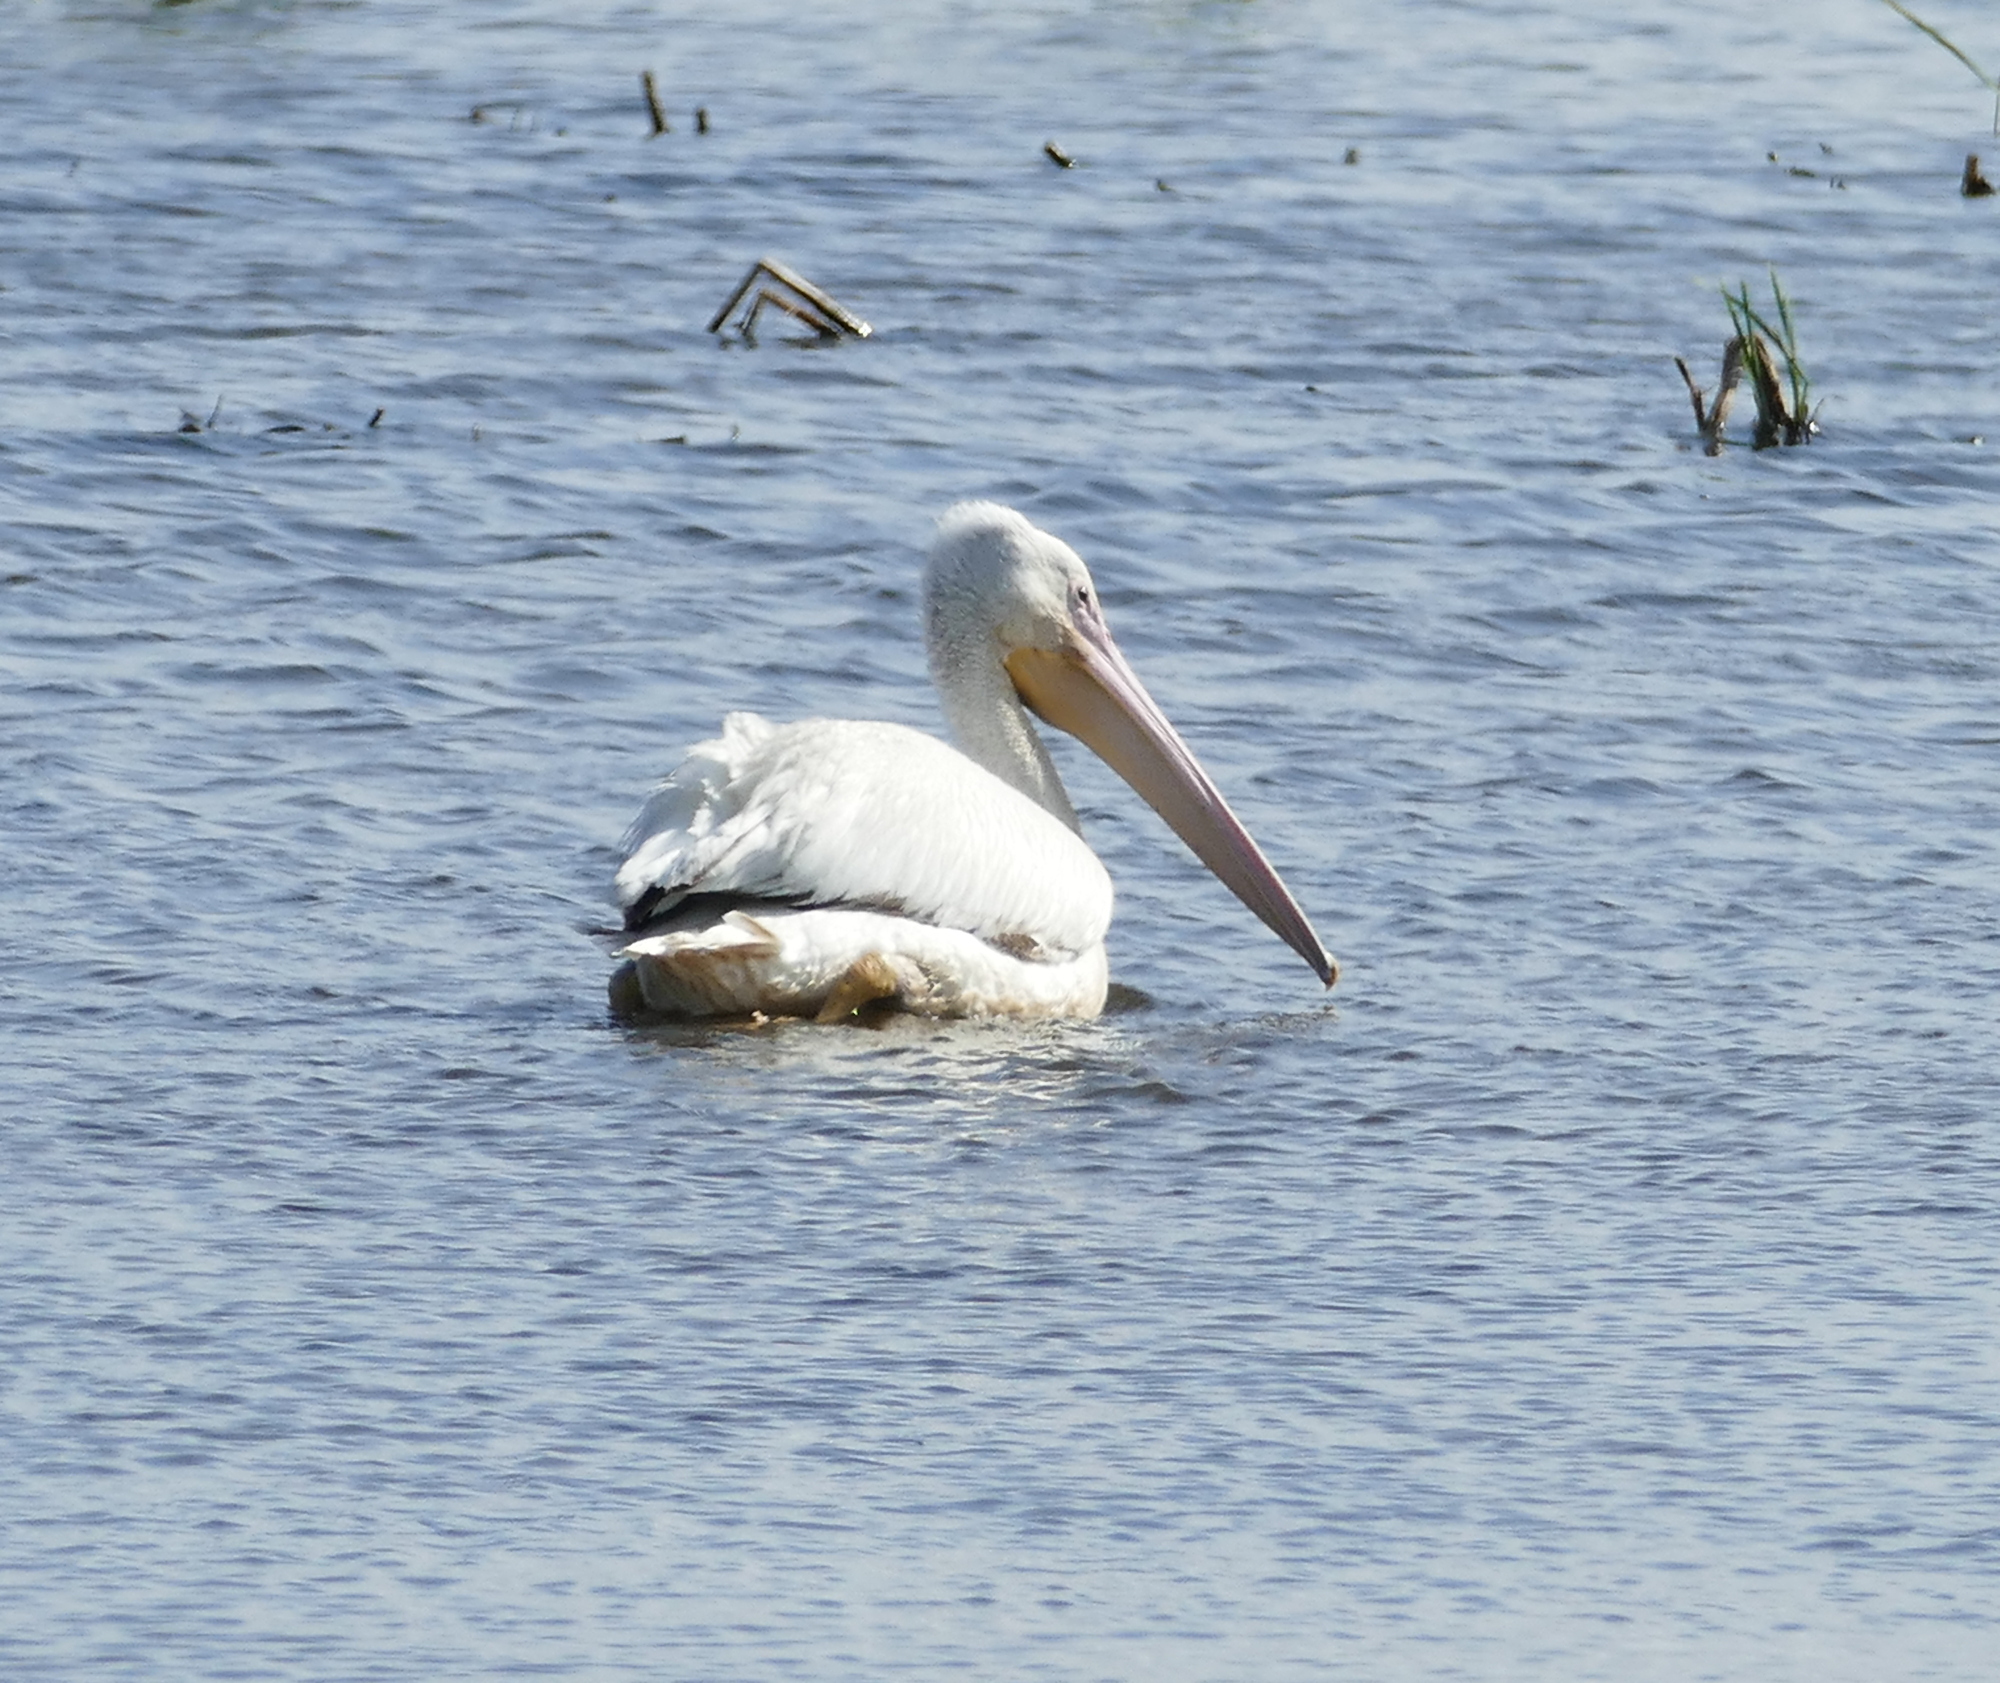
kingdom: Animalia
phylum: Chordata
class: Aves
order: Pelecaniformes
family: Pelecanidae
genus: Pelecanus
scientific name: Pelecanus erythrorhynchos
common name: American white pelican
